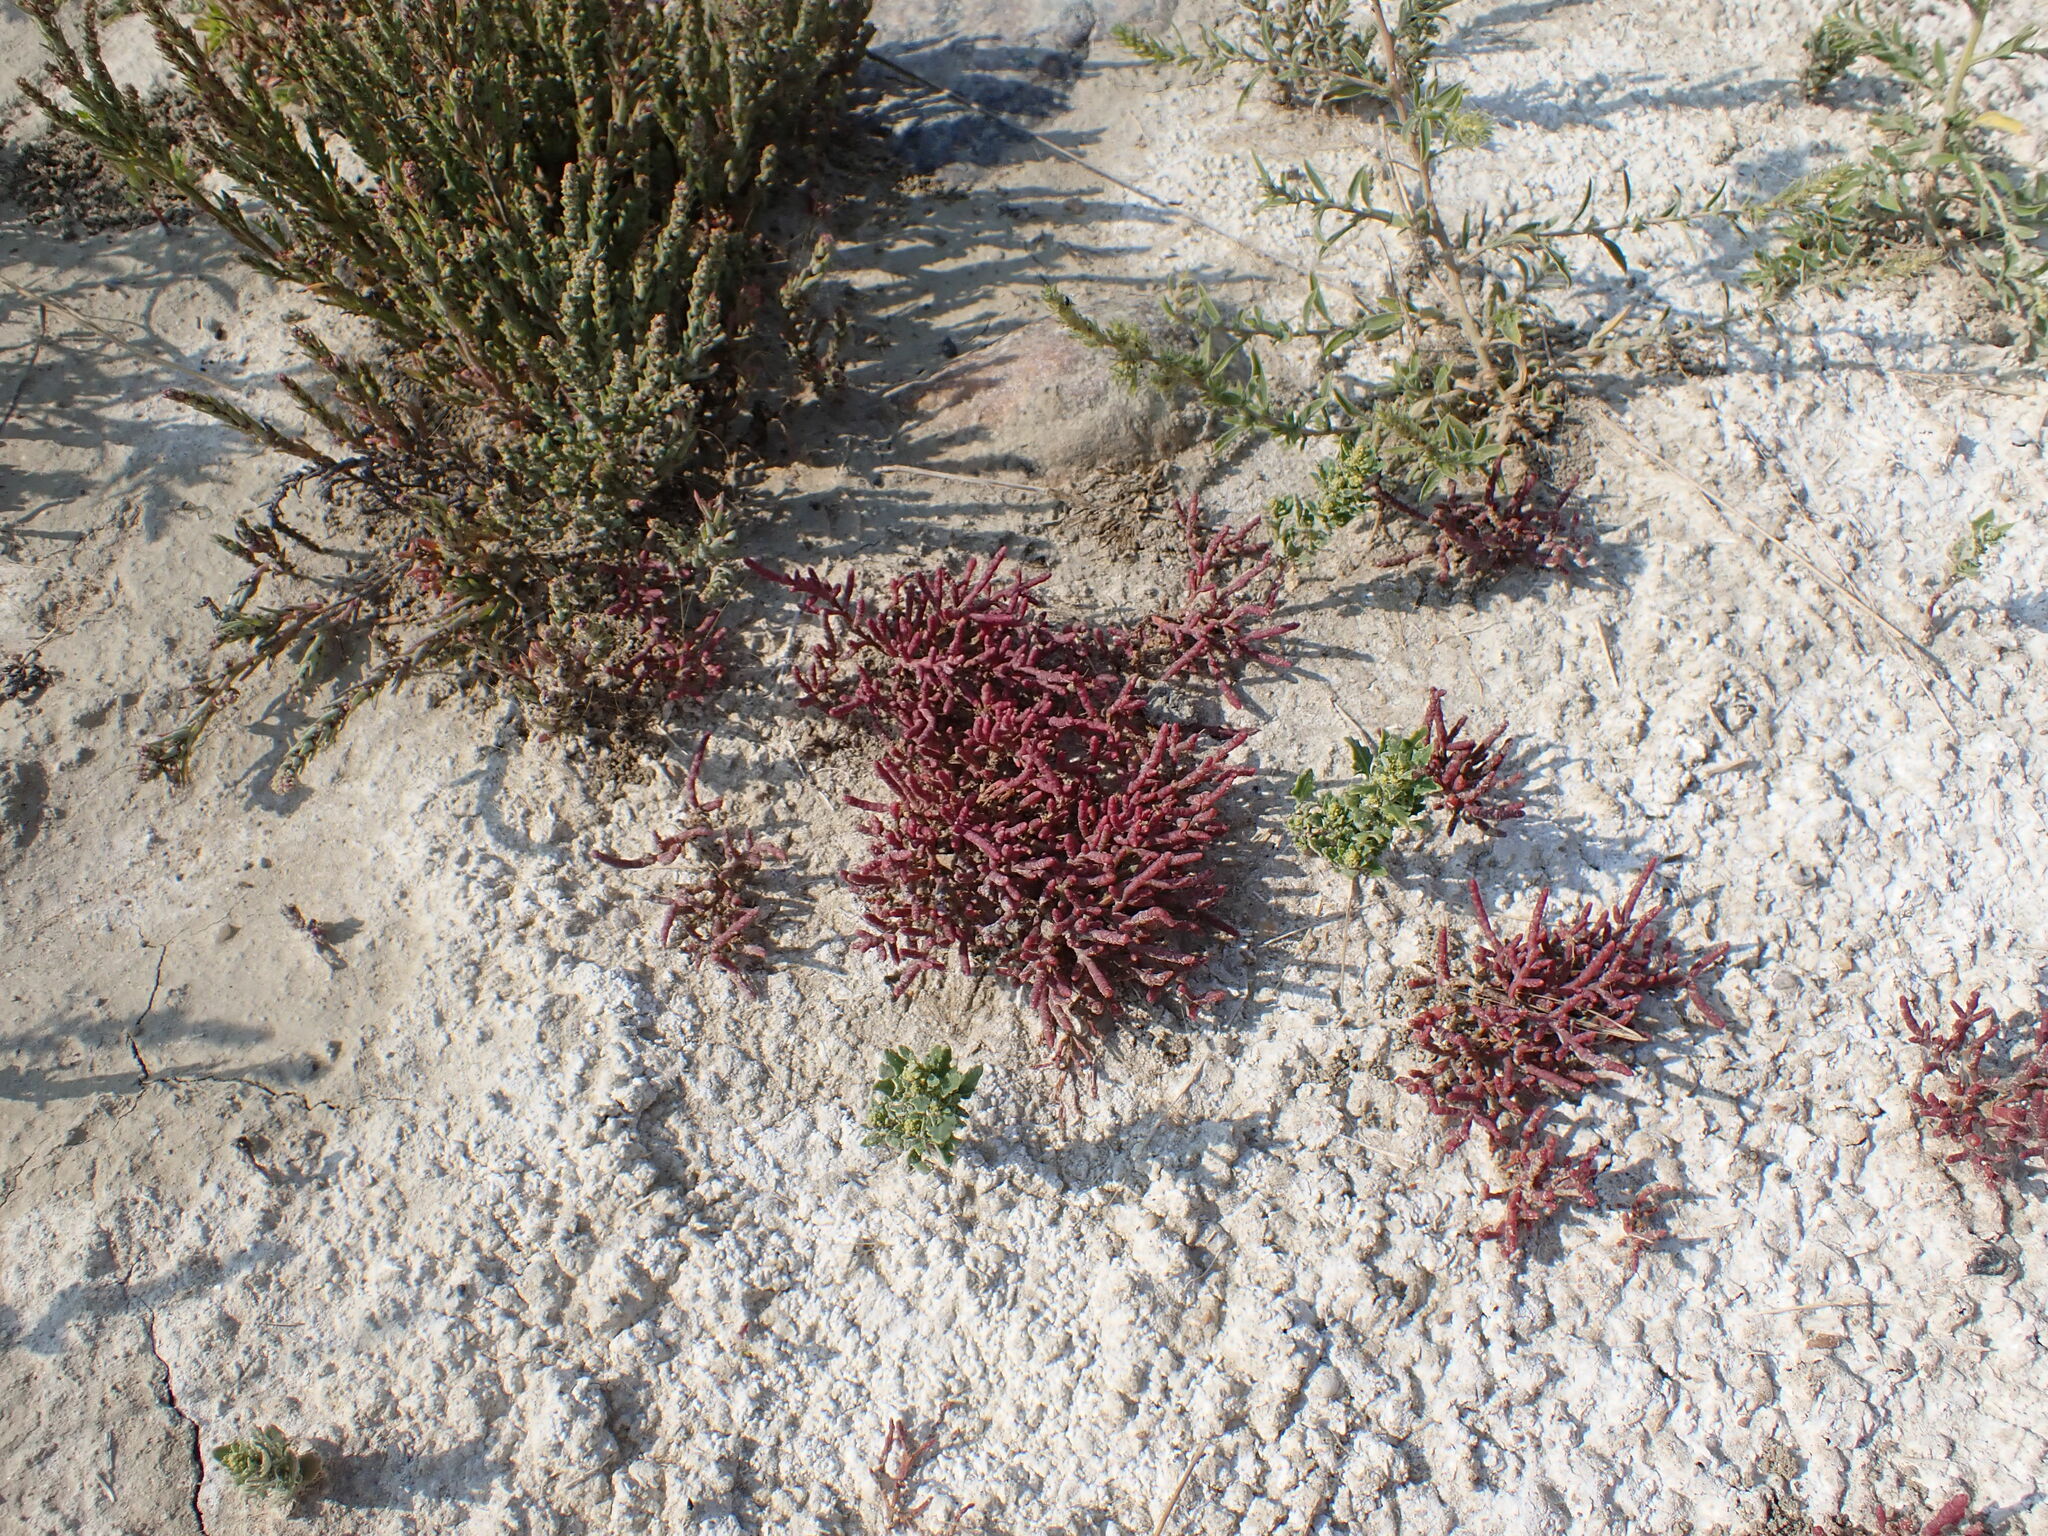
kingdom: Plantae
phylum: Tracheophyta
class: Magnoliopsida
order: Caryophyllales
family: Amaranthaceae
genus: Salicornia
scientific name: Salicornia rubra
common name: Red glasswort
